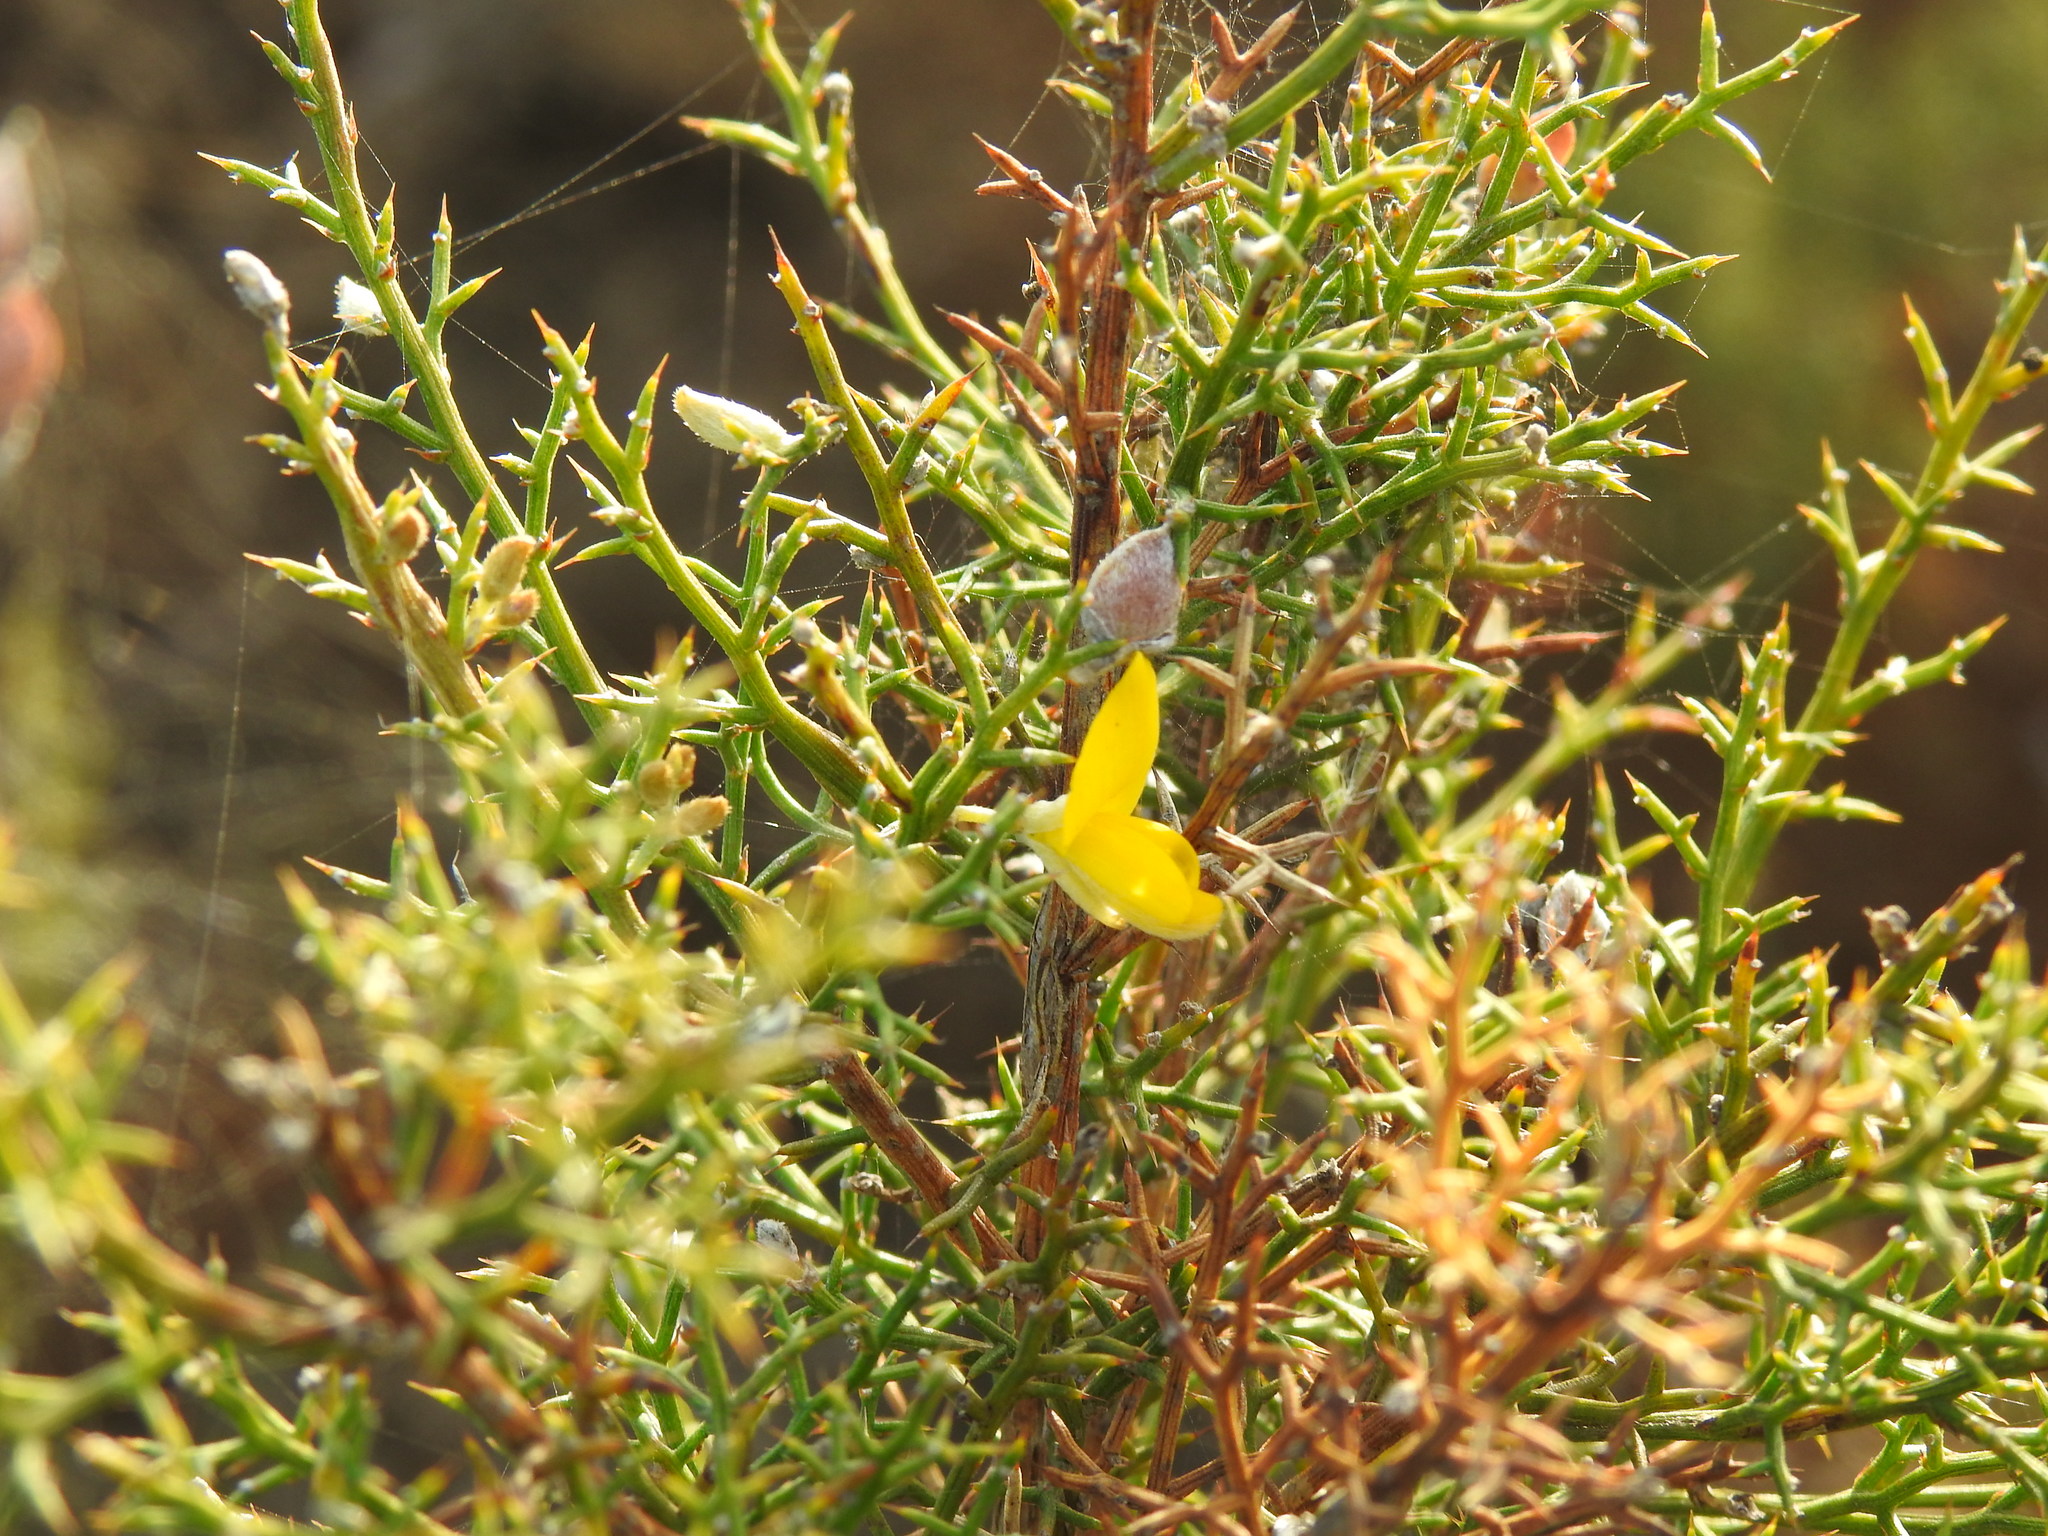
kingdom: Plantae
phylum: Tracheophyta
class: Magnoliopsida
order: Fabales
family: Fabaceae
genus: Stauracanthus
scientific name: Stauracanthus boivinii
